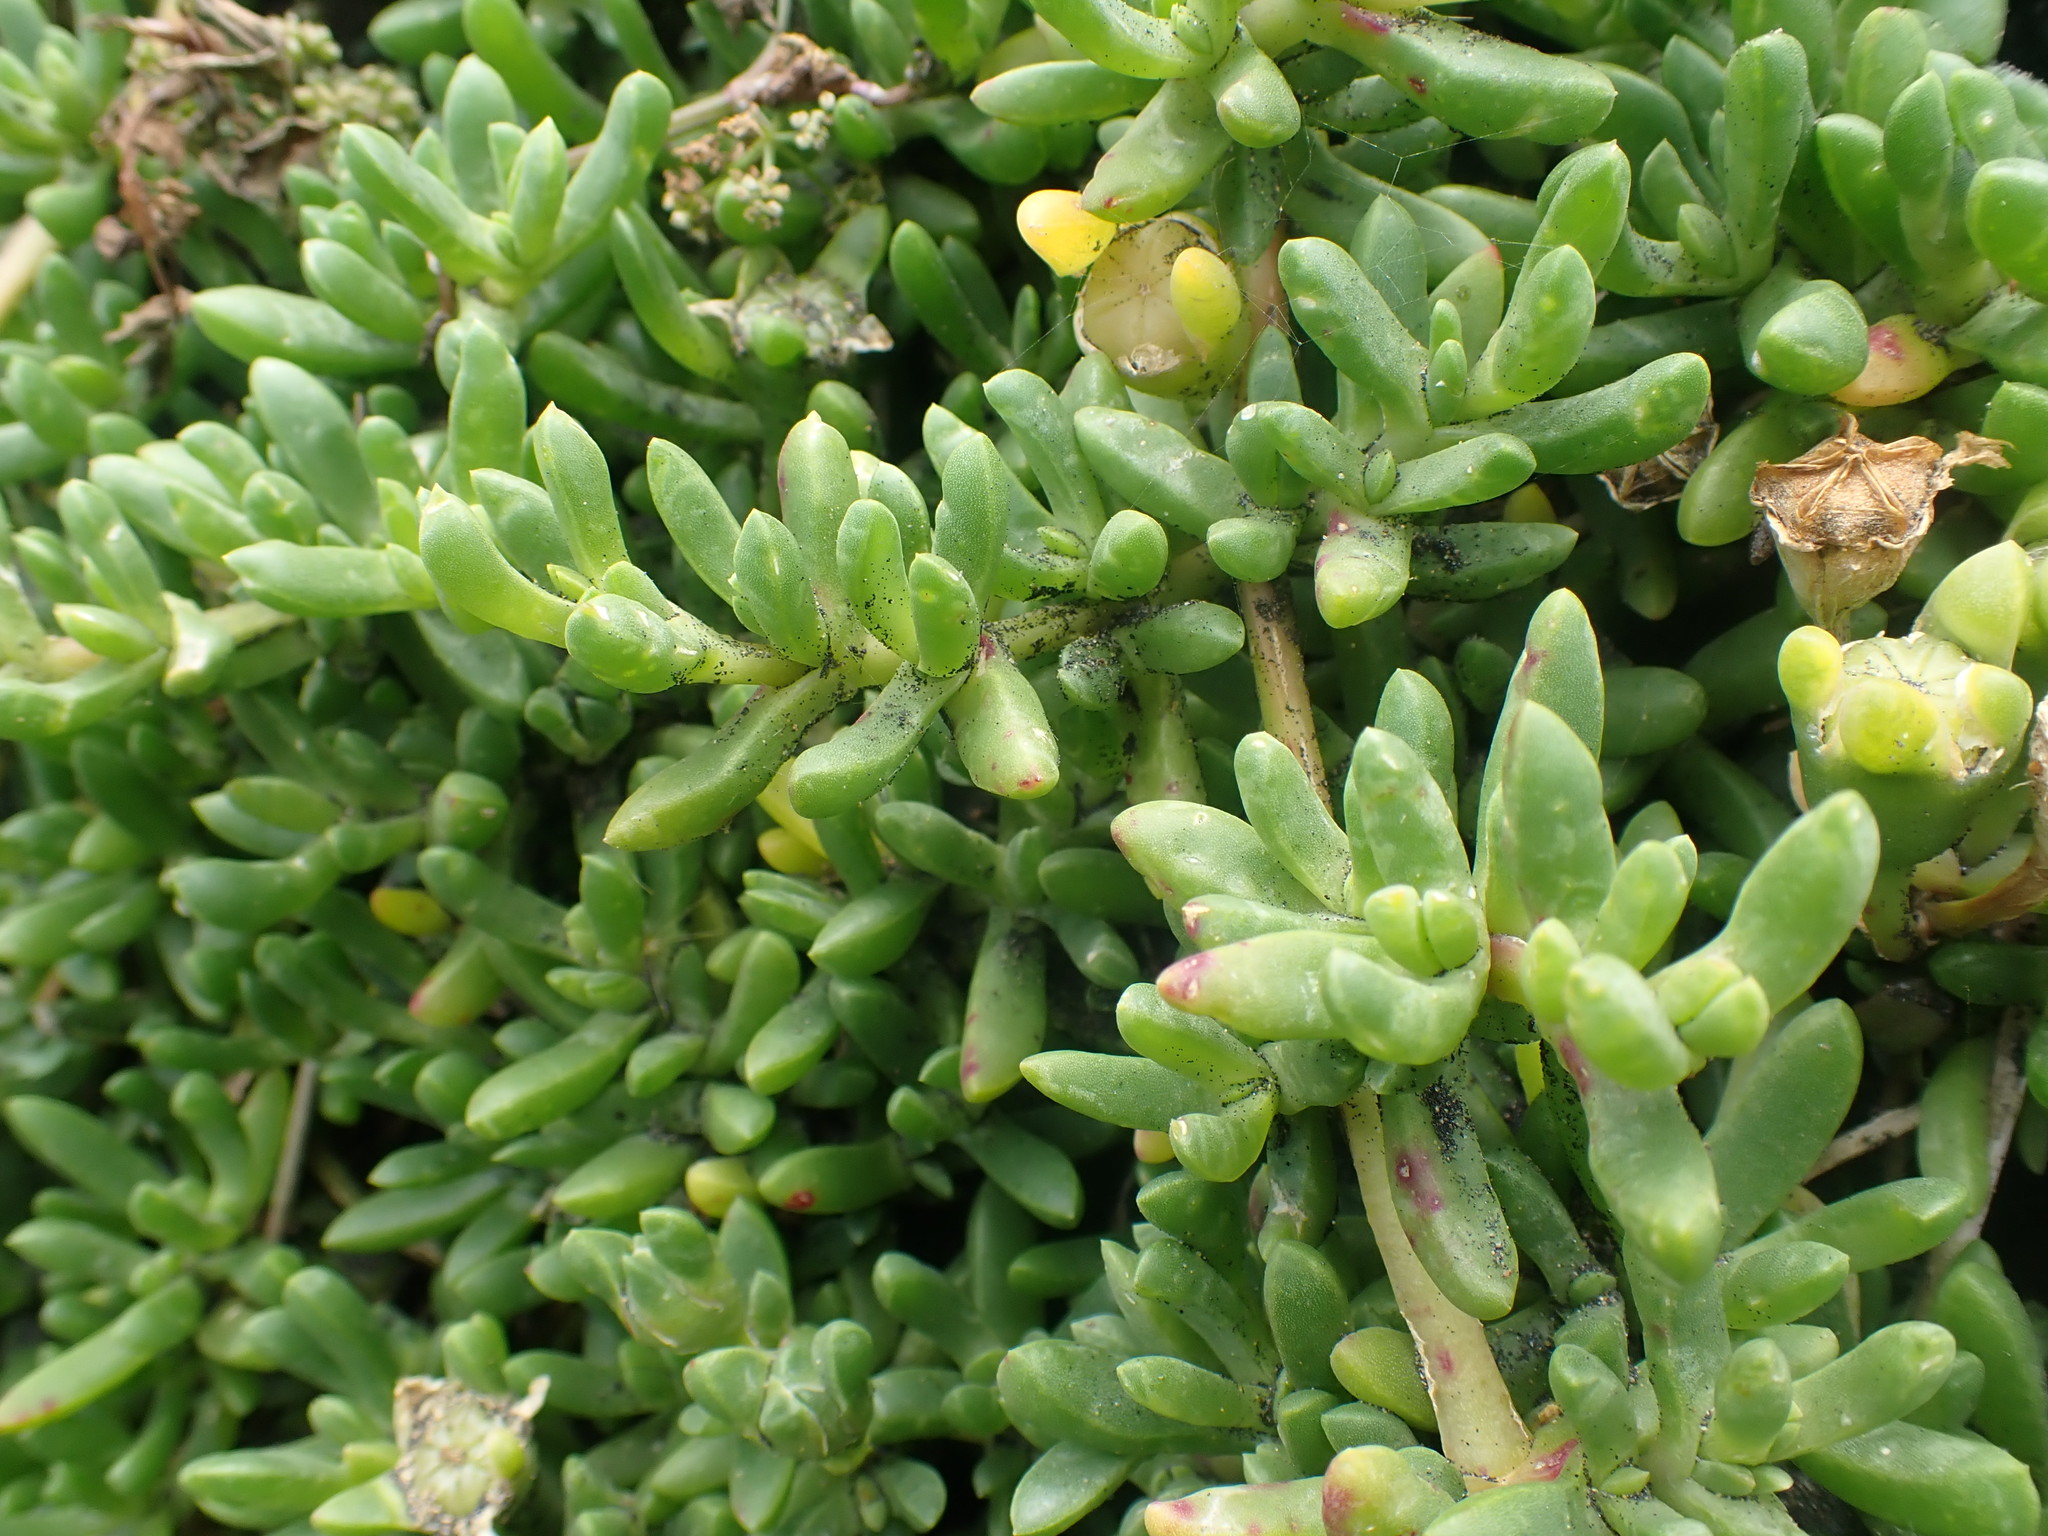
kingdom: Plantae
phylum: Tracheophyta
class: Magnoliopsida
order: Caryophyllales
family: Aizoaceae
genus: Disphyma
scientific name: Disphyma australe
